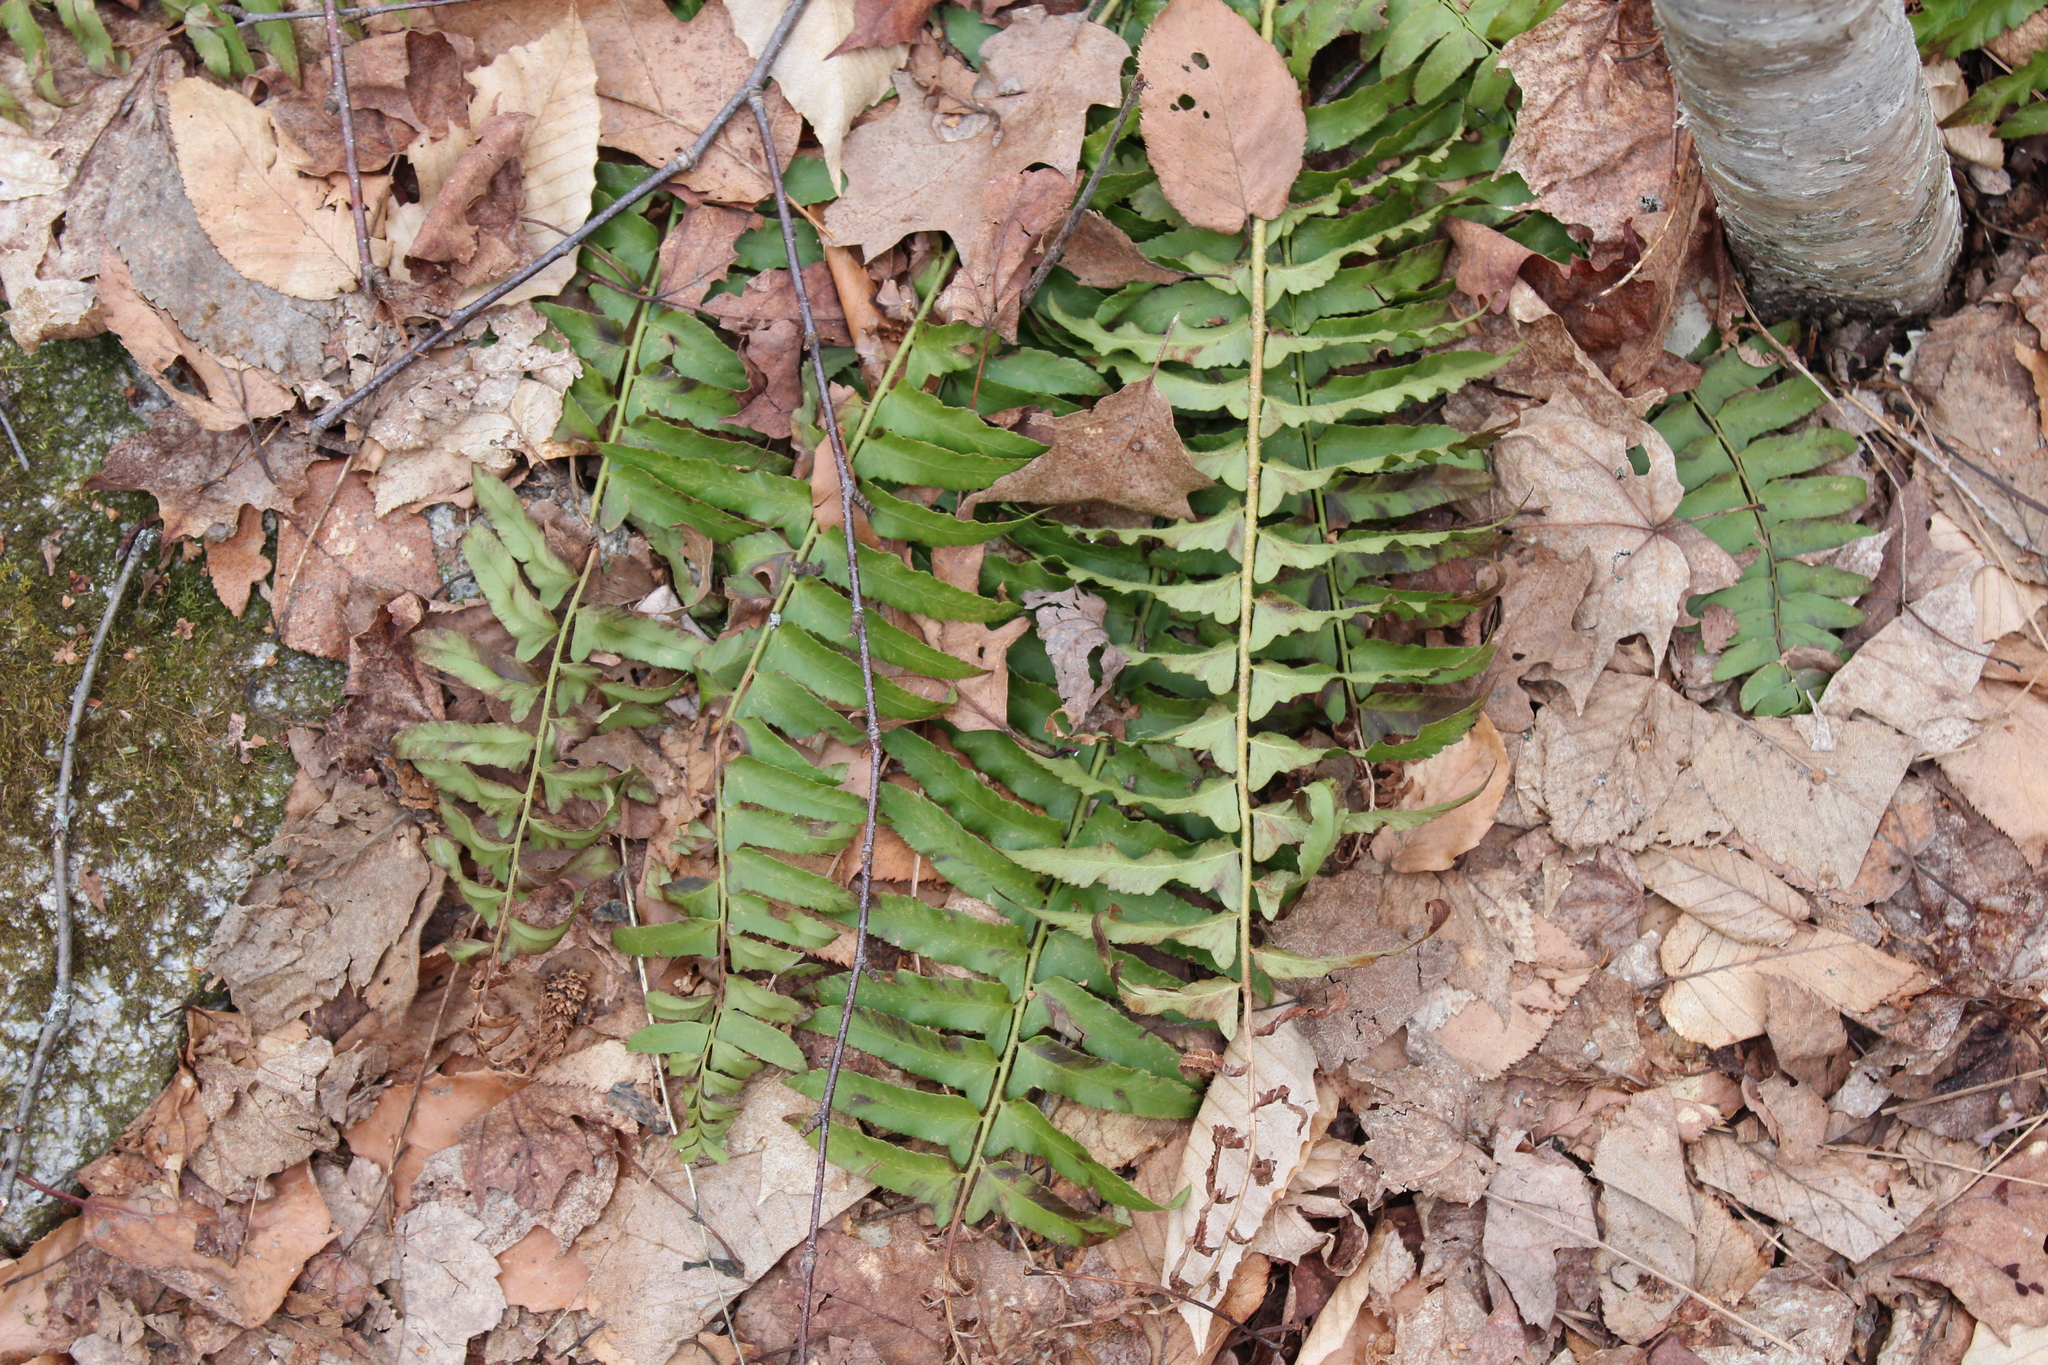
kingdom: Plantae
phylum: Tracheophyta
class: Polypodiopsida
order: Polypodiales
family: Dryopteridaceae
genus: Polystichum
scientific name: Polystichum acrostichoides
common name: Christmas fern
